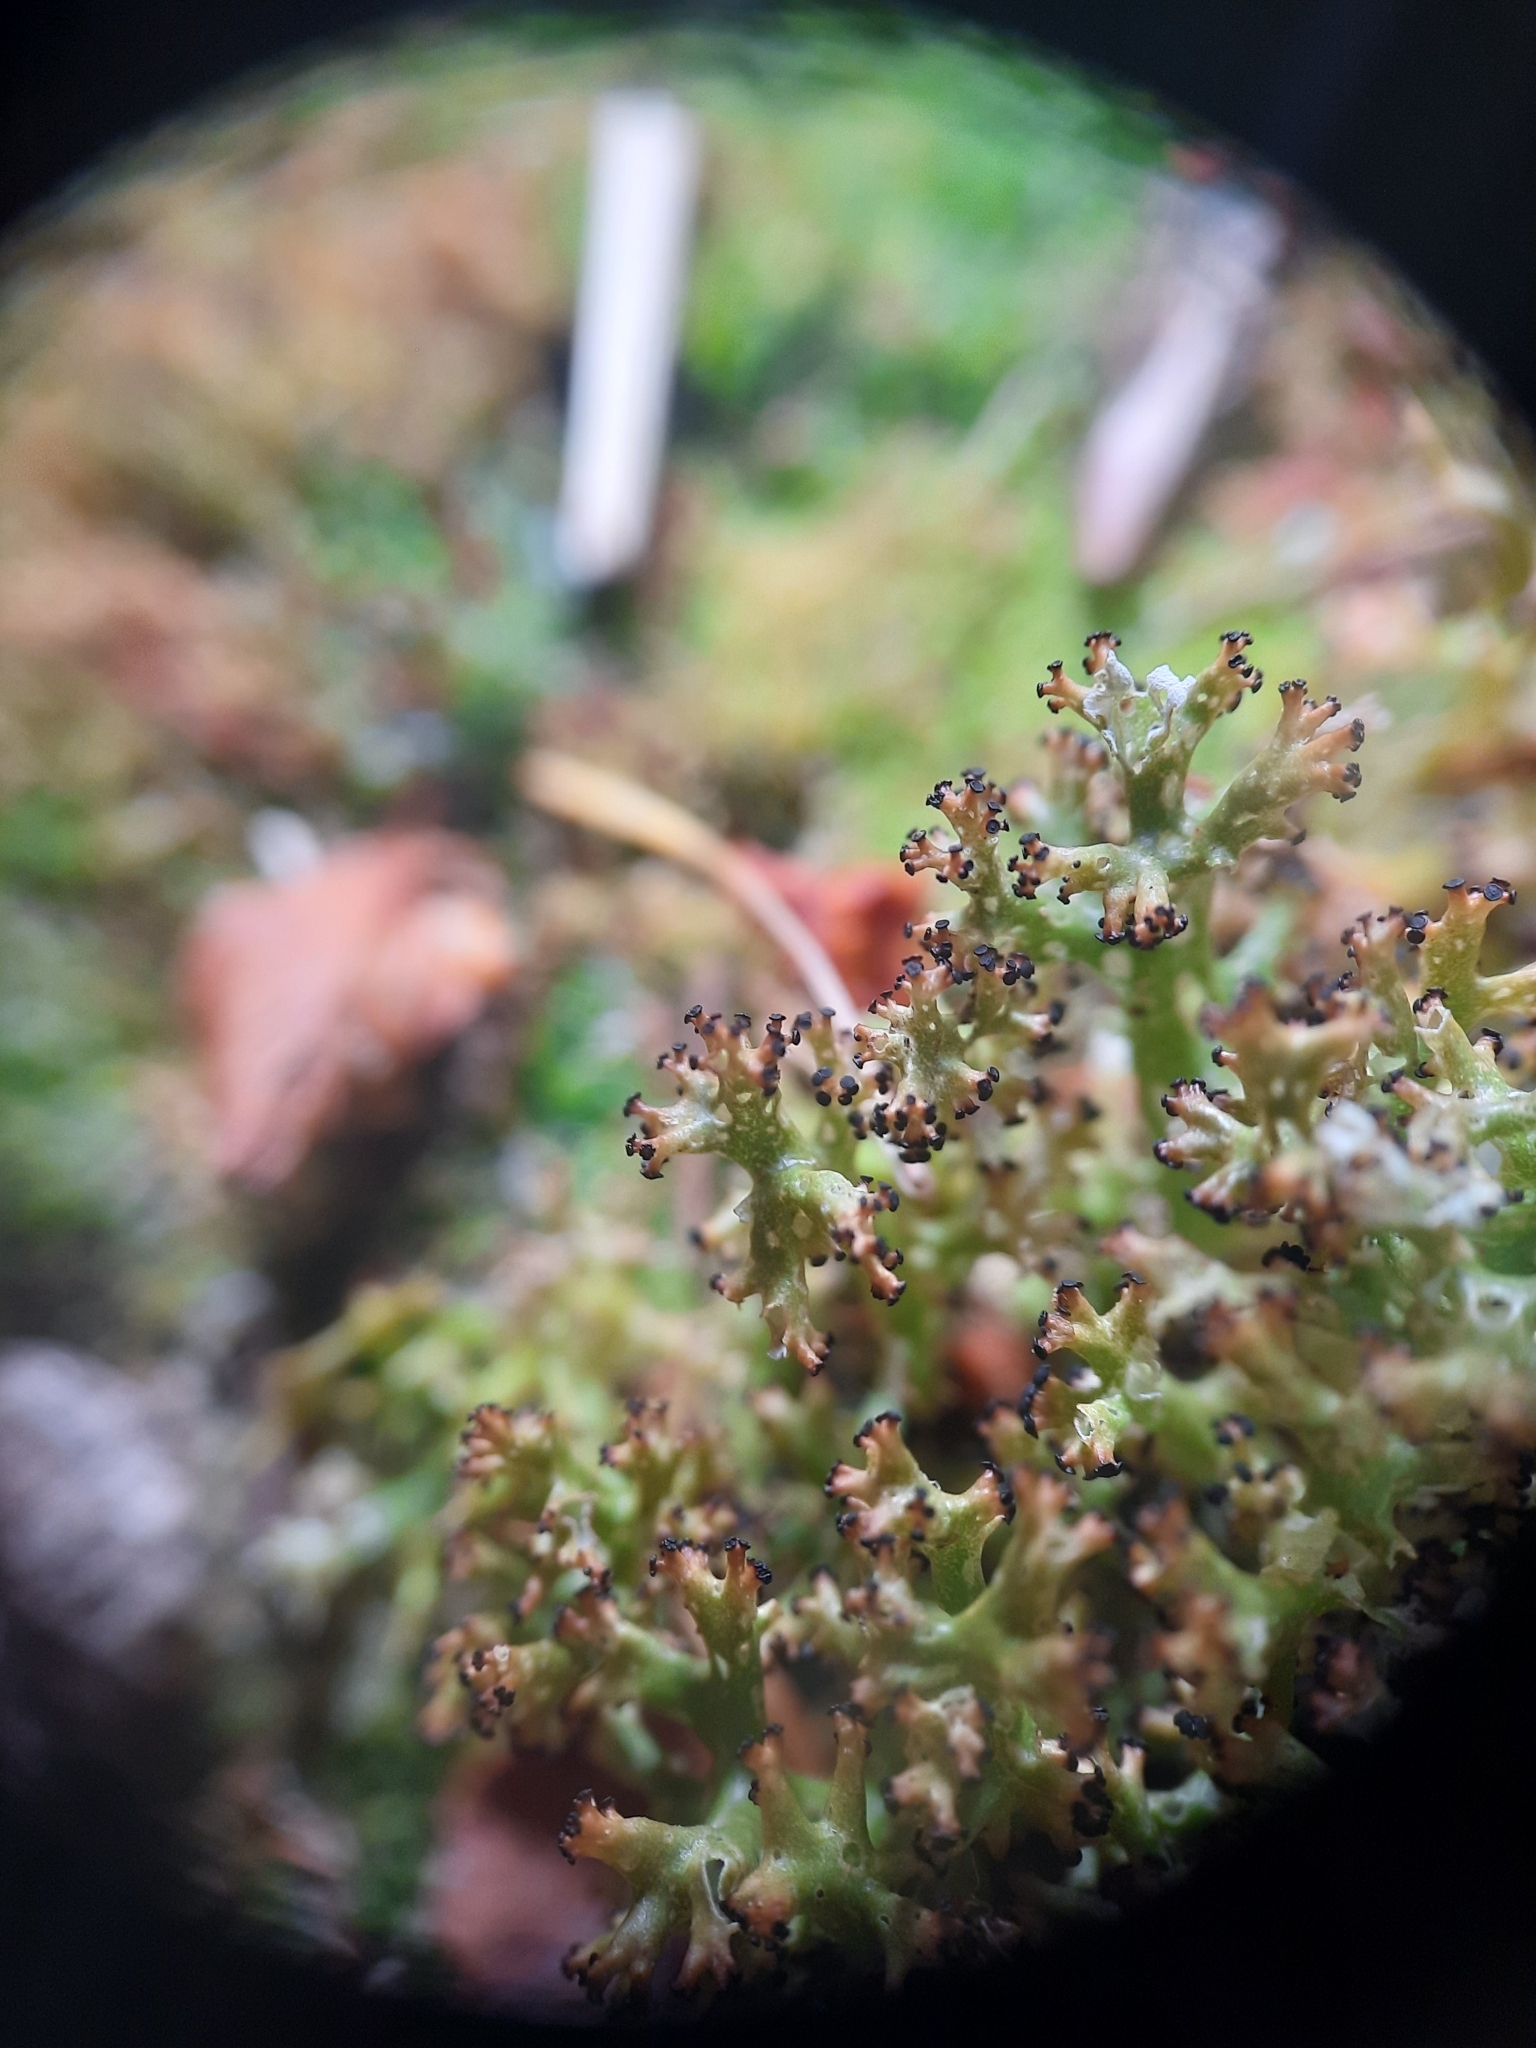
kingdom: Fungi
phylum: Ascomycota
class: Lecanoromycetes
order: Lecanorales
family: Cladoniaceae
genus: Cladia
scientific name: Cladia inflata
